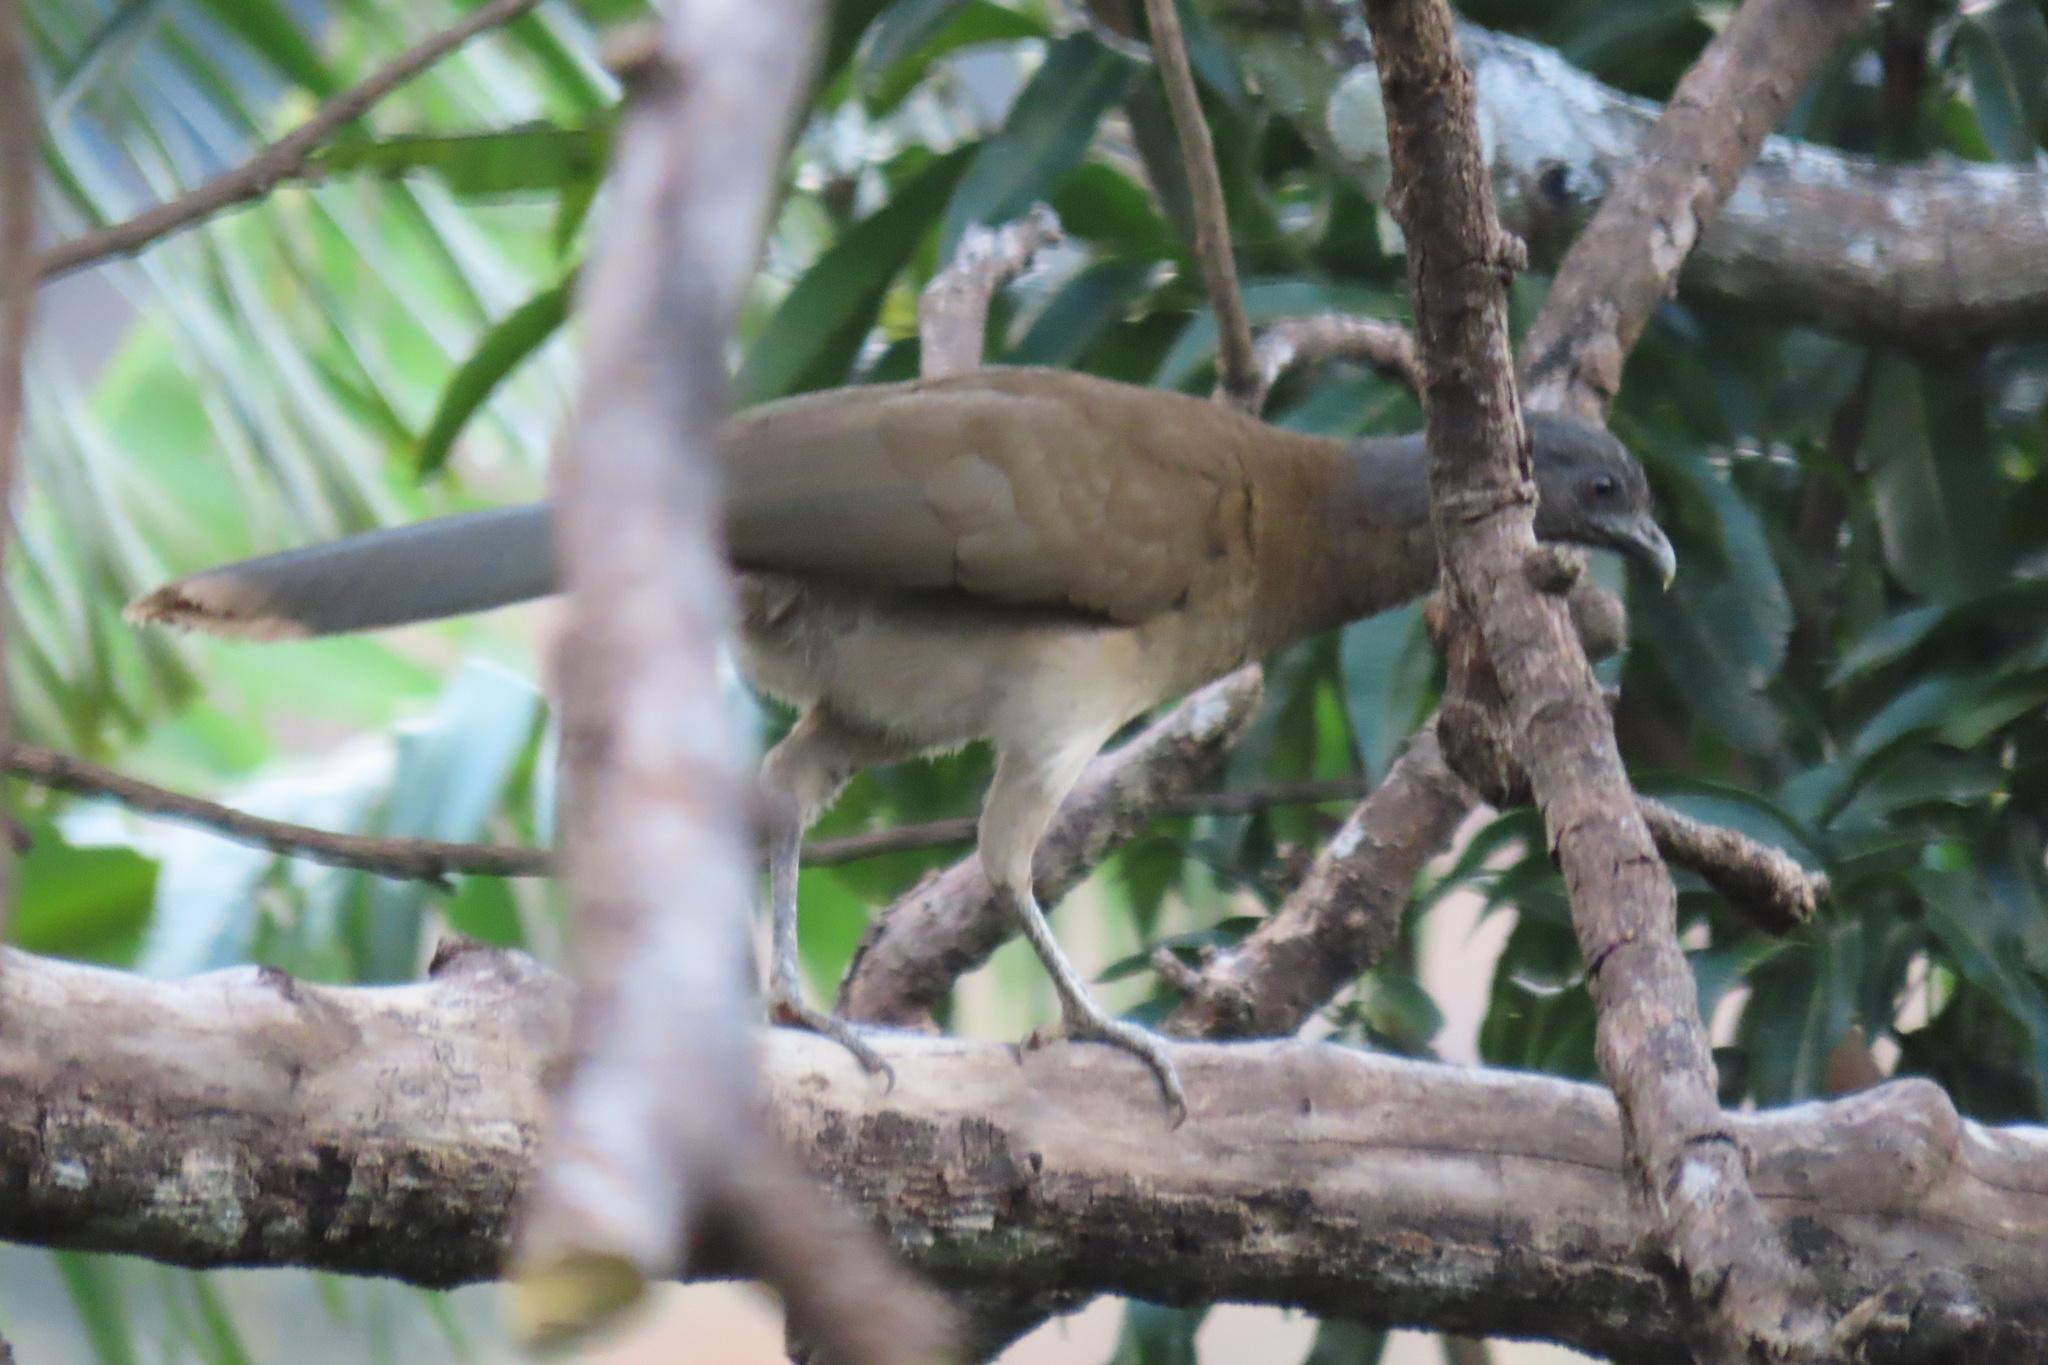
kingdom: Animalia
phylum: Chordata
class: Aves
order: Galliformes
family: Cracidae
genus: Ortalis
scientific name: Ortalis cinereiceps
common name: Grey-headed chachalaca
